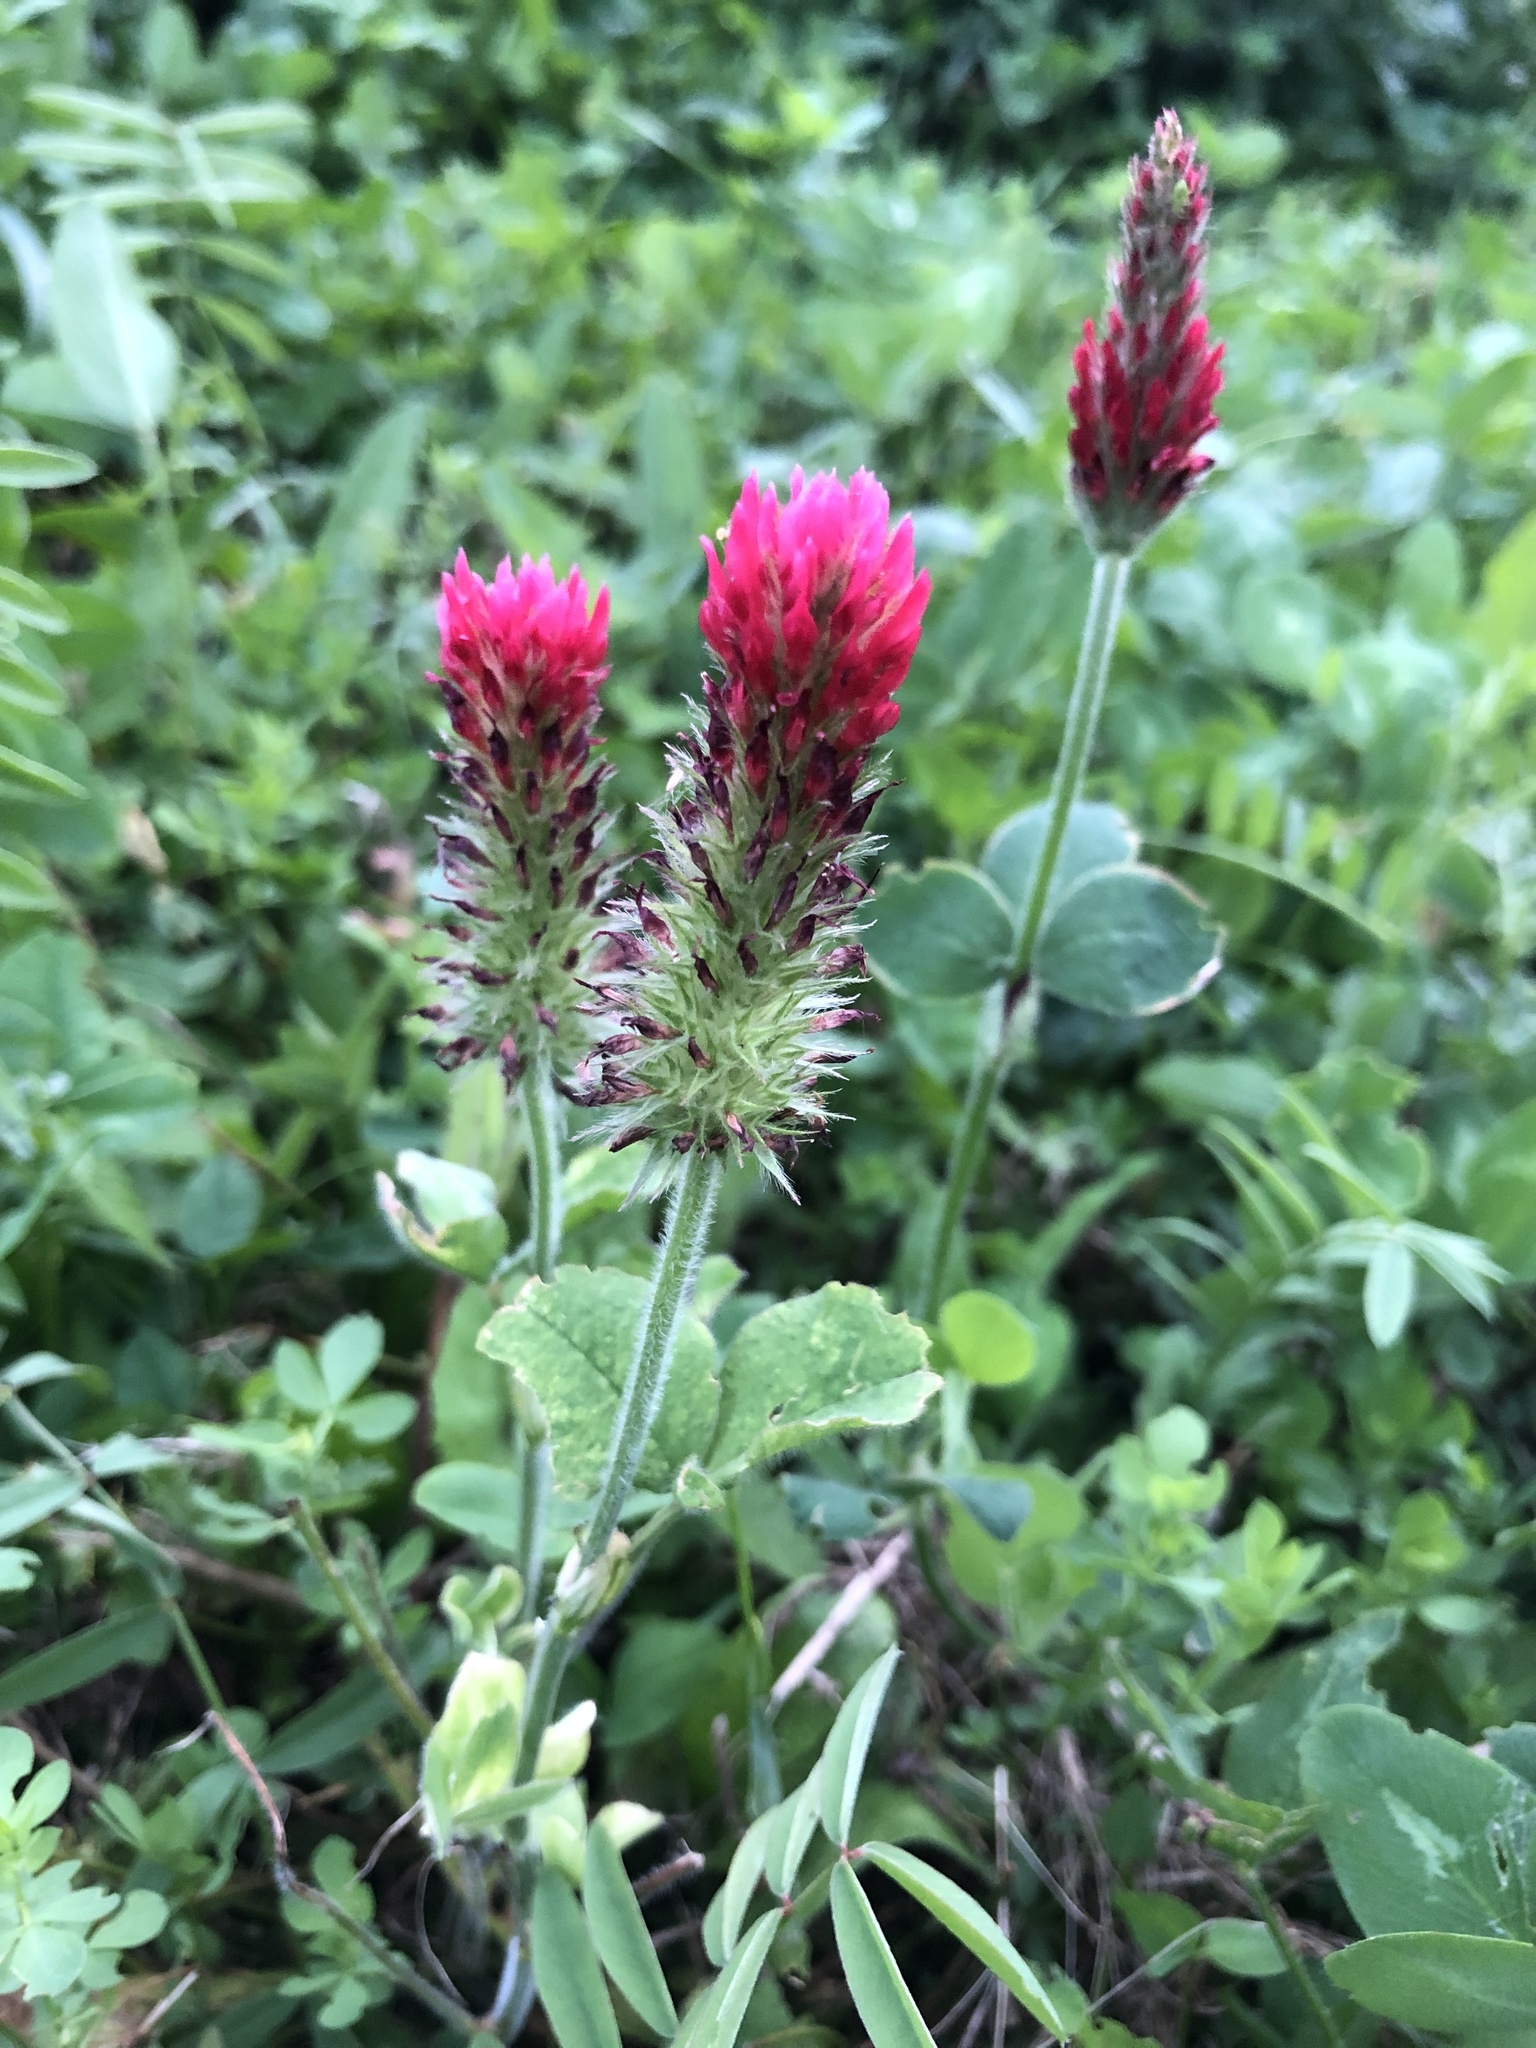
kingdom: Plantae
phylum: Tracheophyta
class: Magnoliopsida
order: Fabales
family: Fabaceae
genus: Trifolium
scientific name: Trifolium incarnatum
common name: Crimson clover
